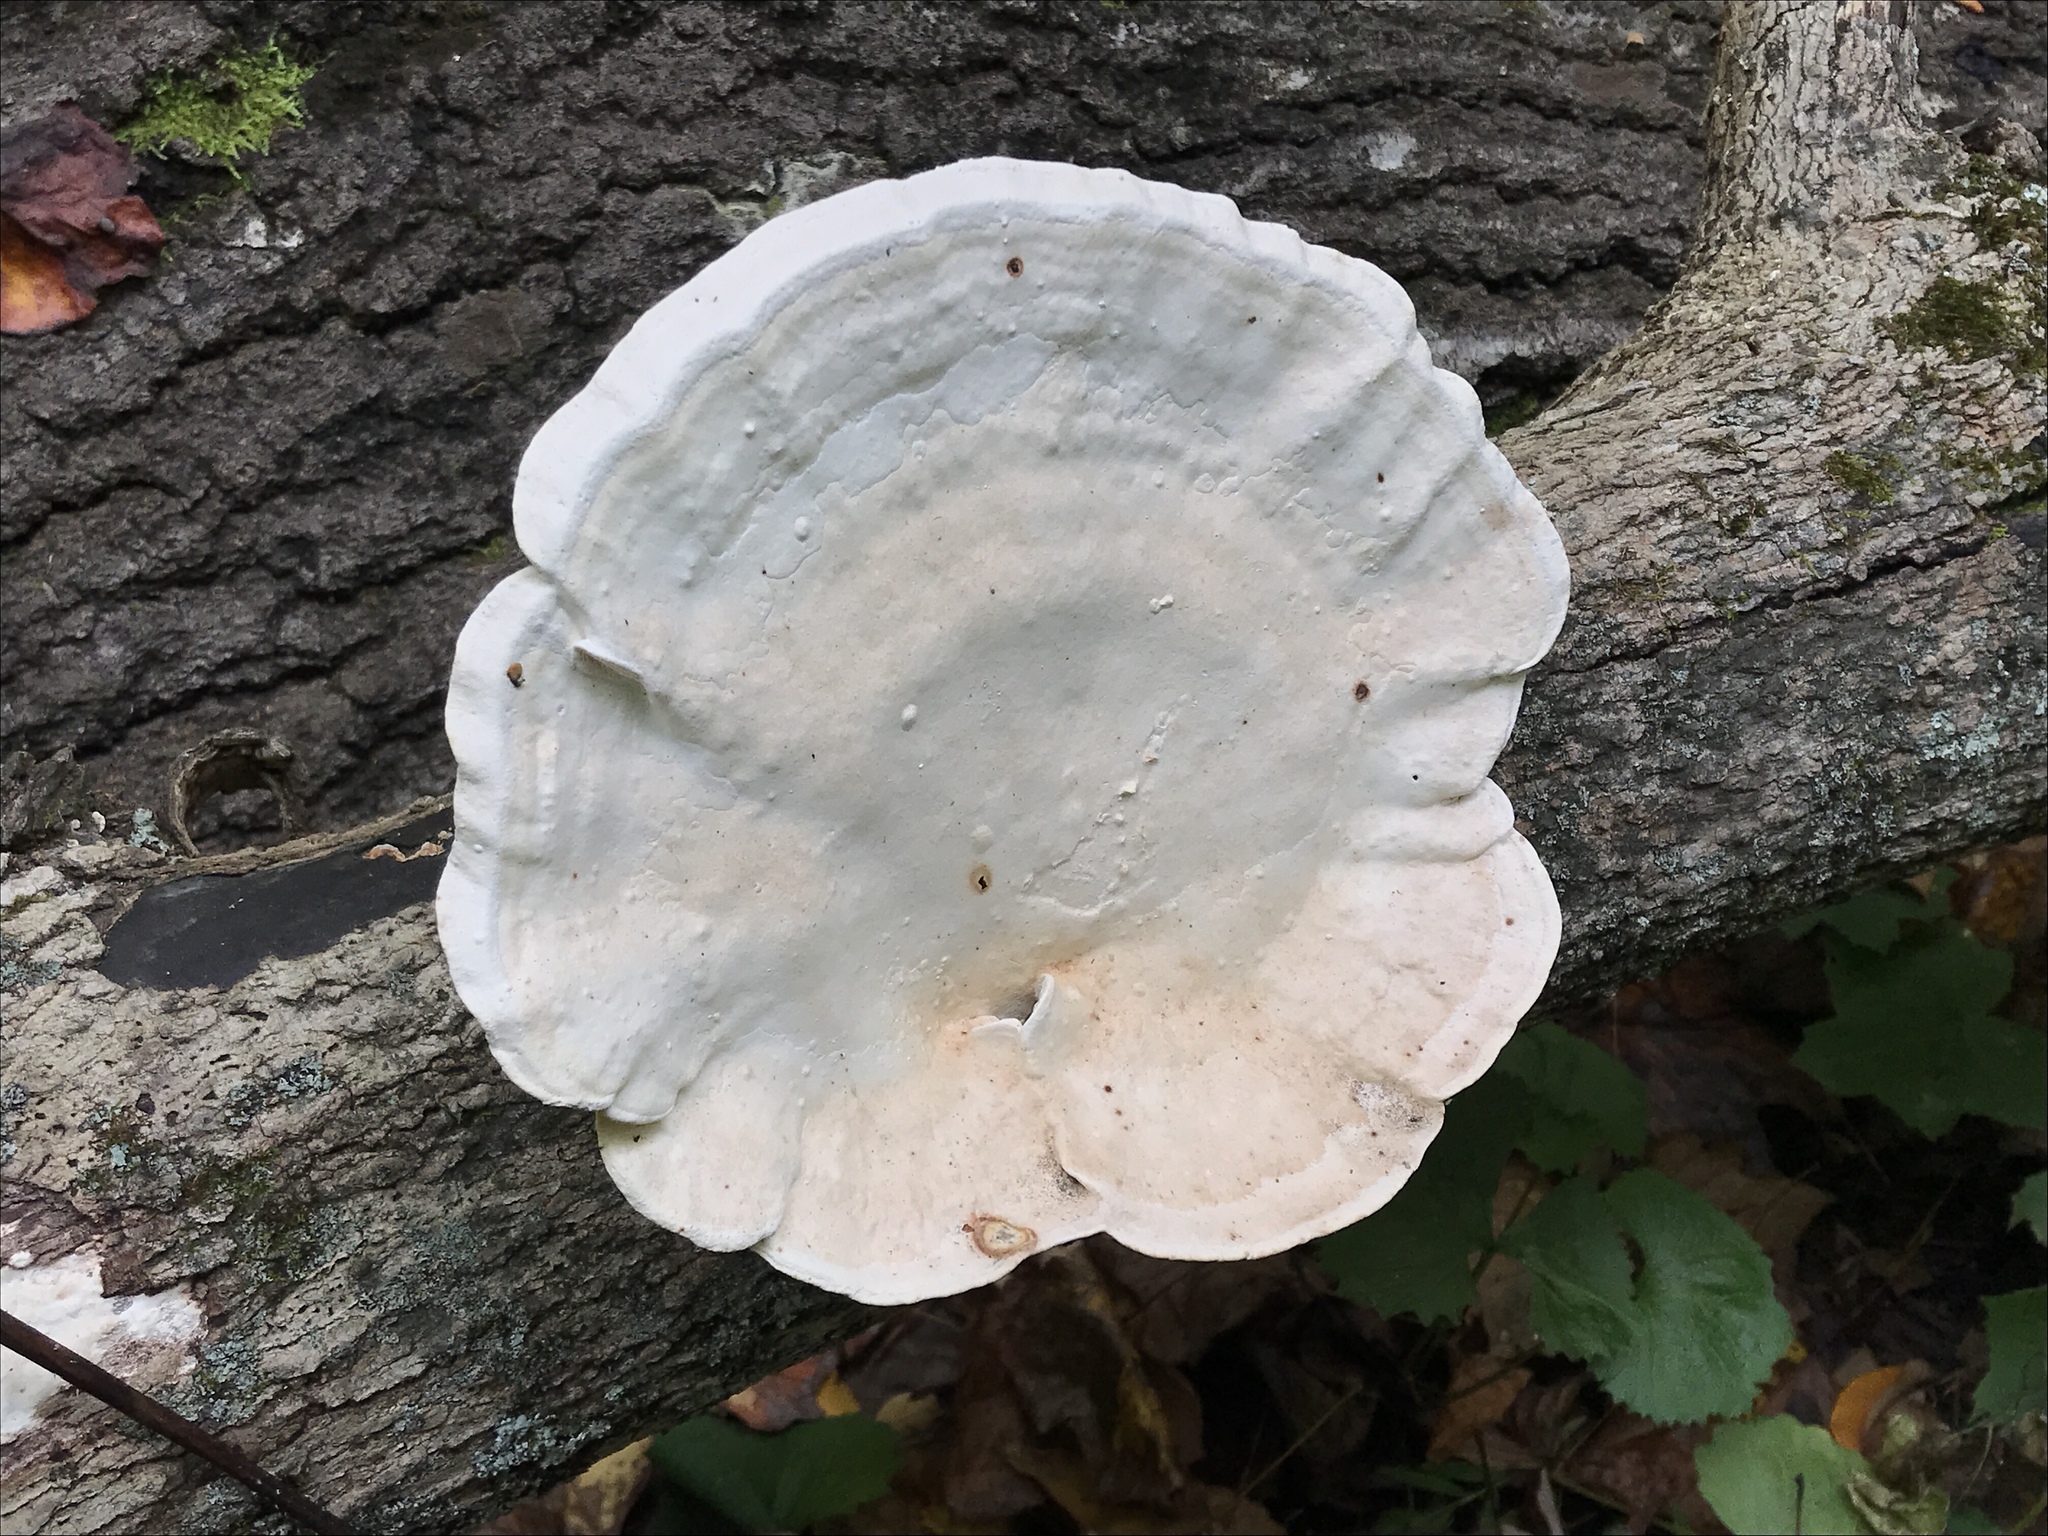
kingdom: Fungi
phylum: Basidiomycota
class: Agaricomycetes
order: Polyporales
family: Polyporaceae
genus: Trametes
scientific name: Trametes
